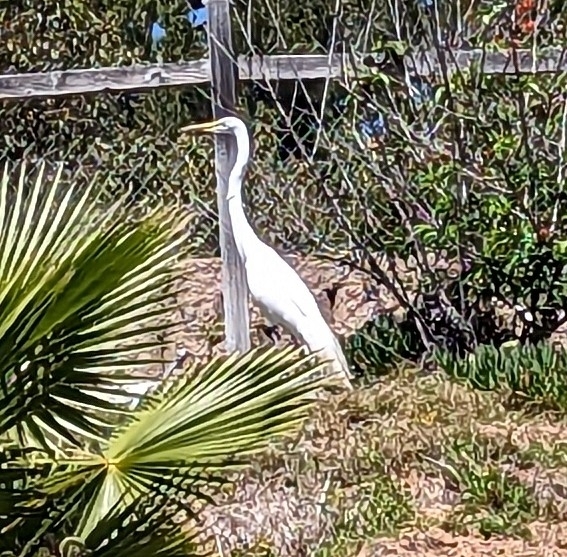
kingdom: Animalia
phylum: Chordata
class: Aves
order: Pelecaniformes
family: Ardeidae
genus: Ardea
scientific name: Ardea alba
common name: Great egret
